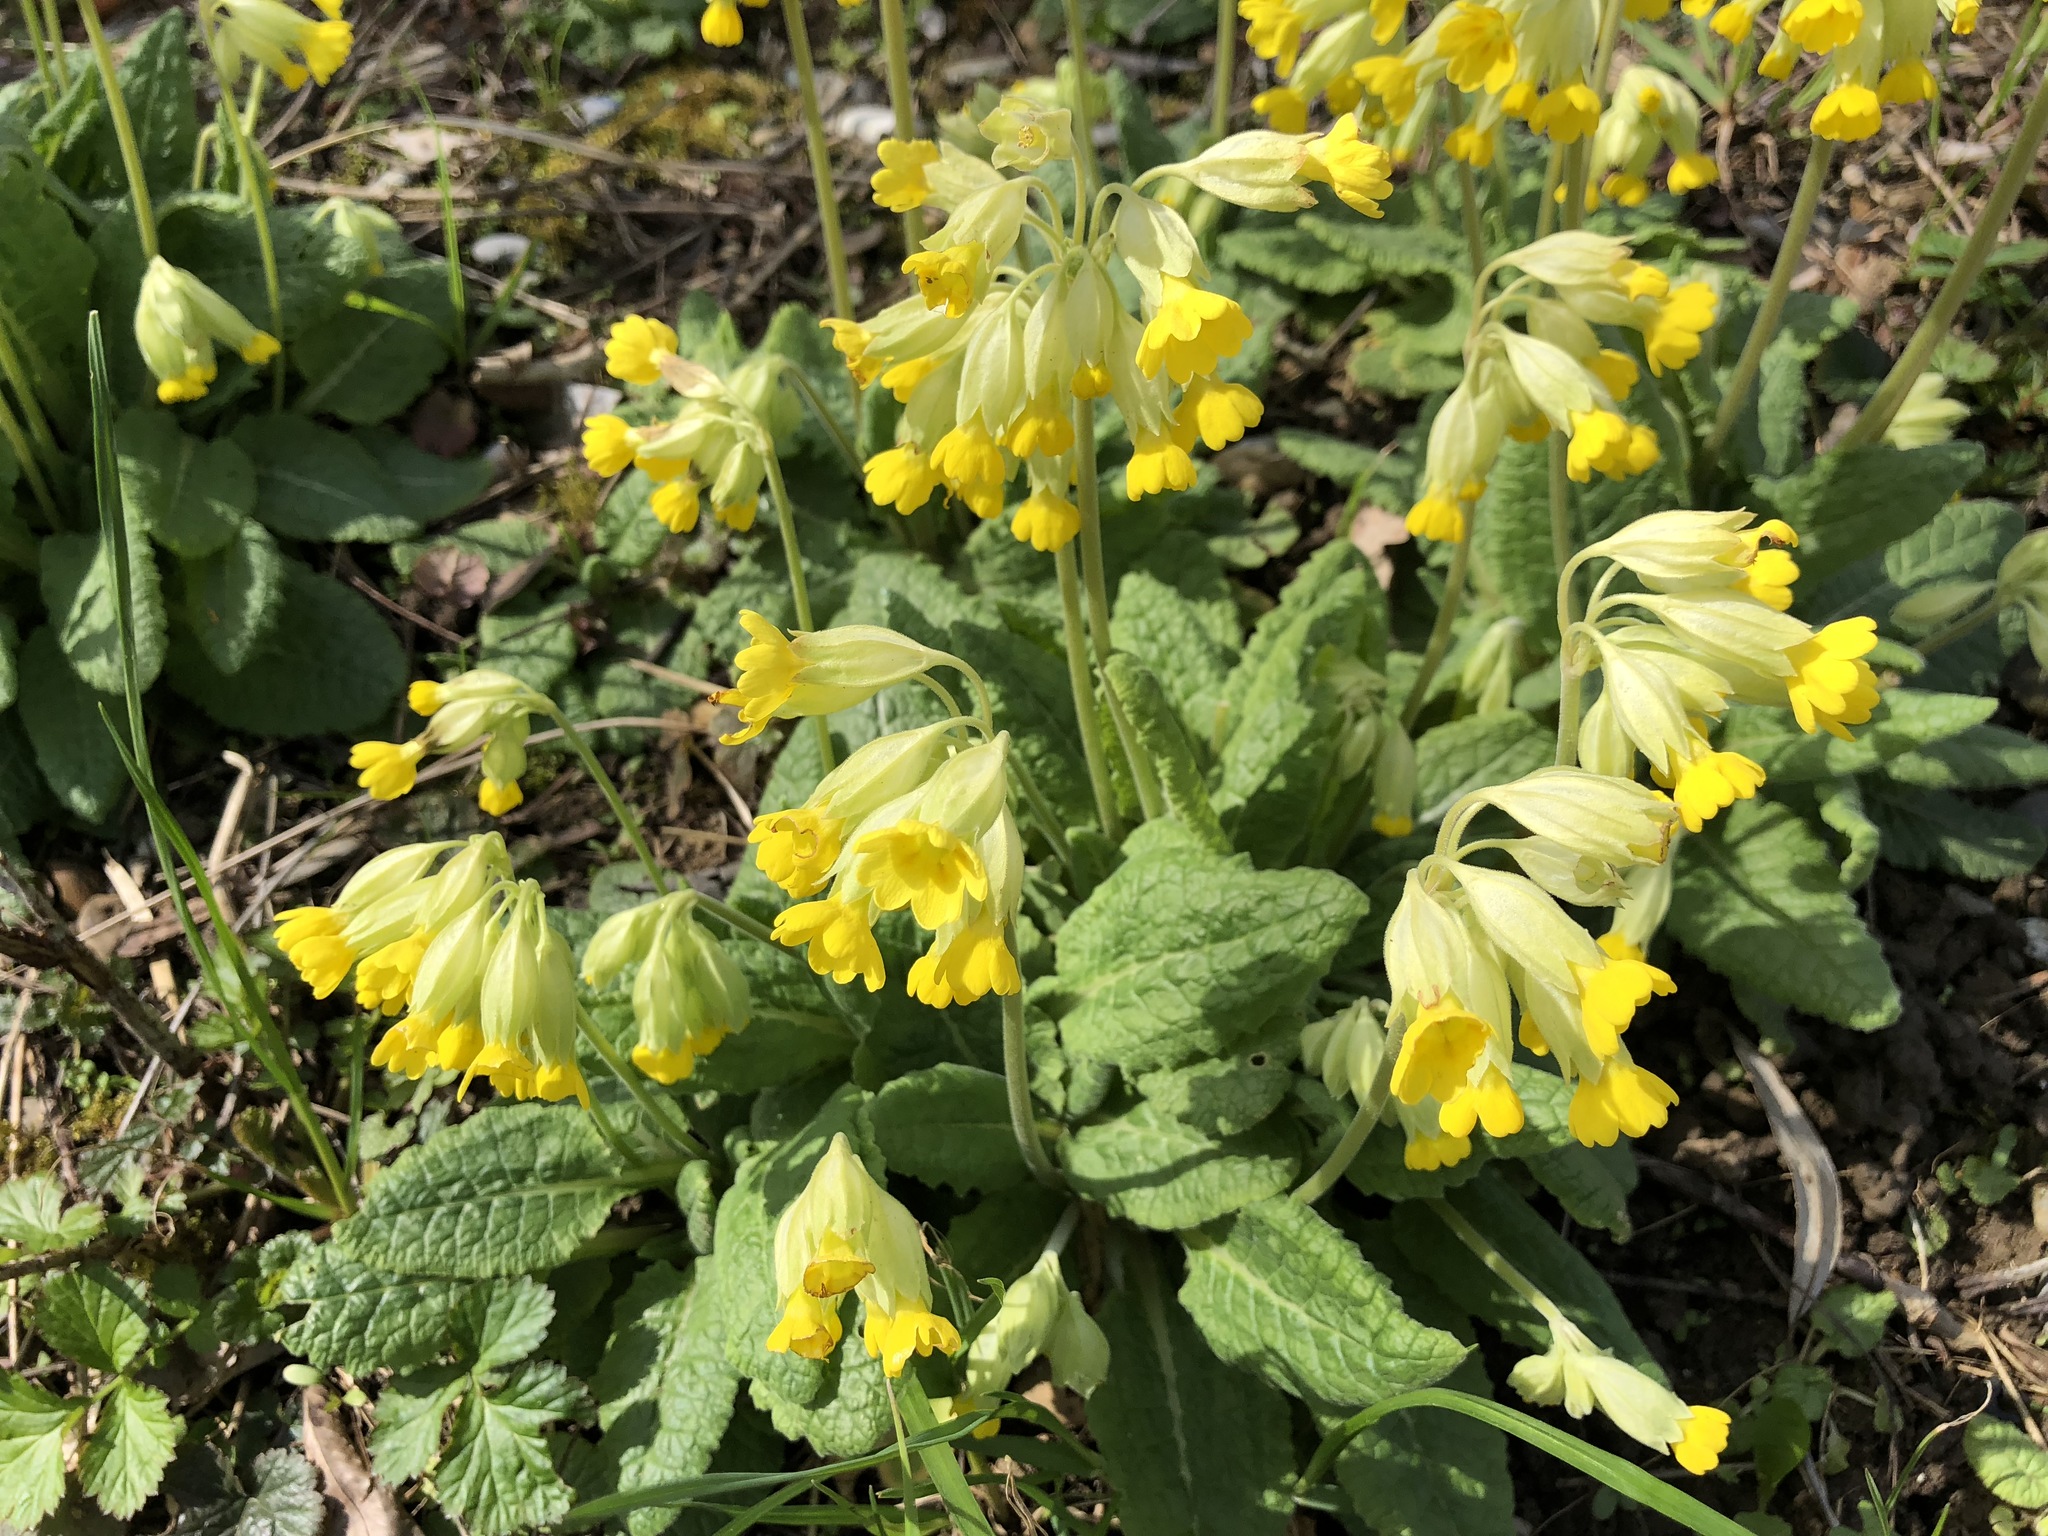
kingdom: Plantae
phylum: Tracheophyta
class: Magnoliopsida
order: Ericales
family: Primulaceae
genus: Primula
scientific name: Primula veris
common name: Cowslip
